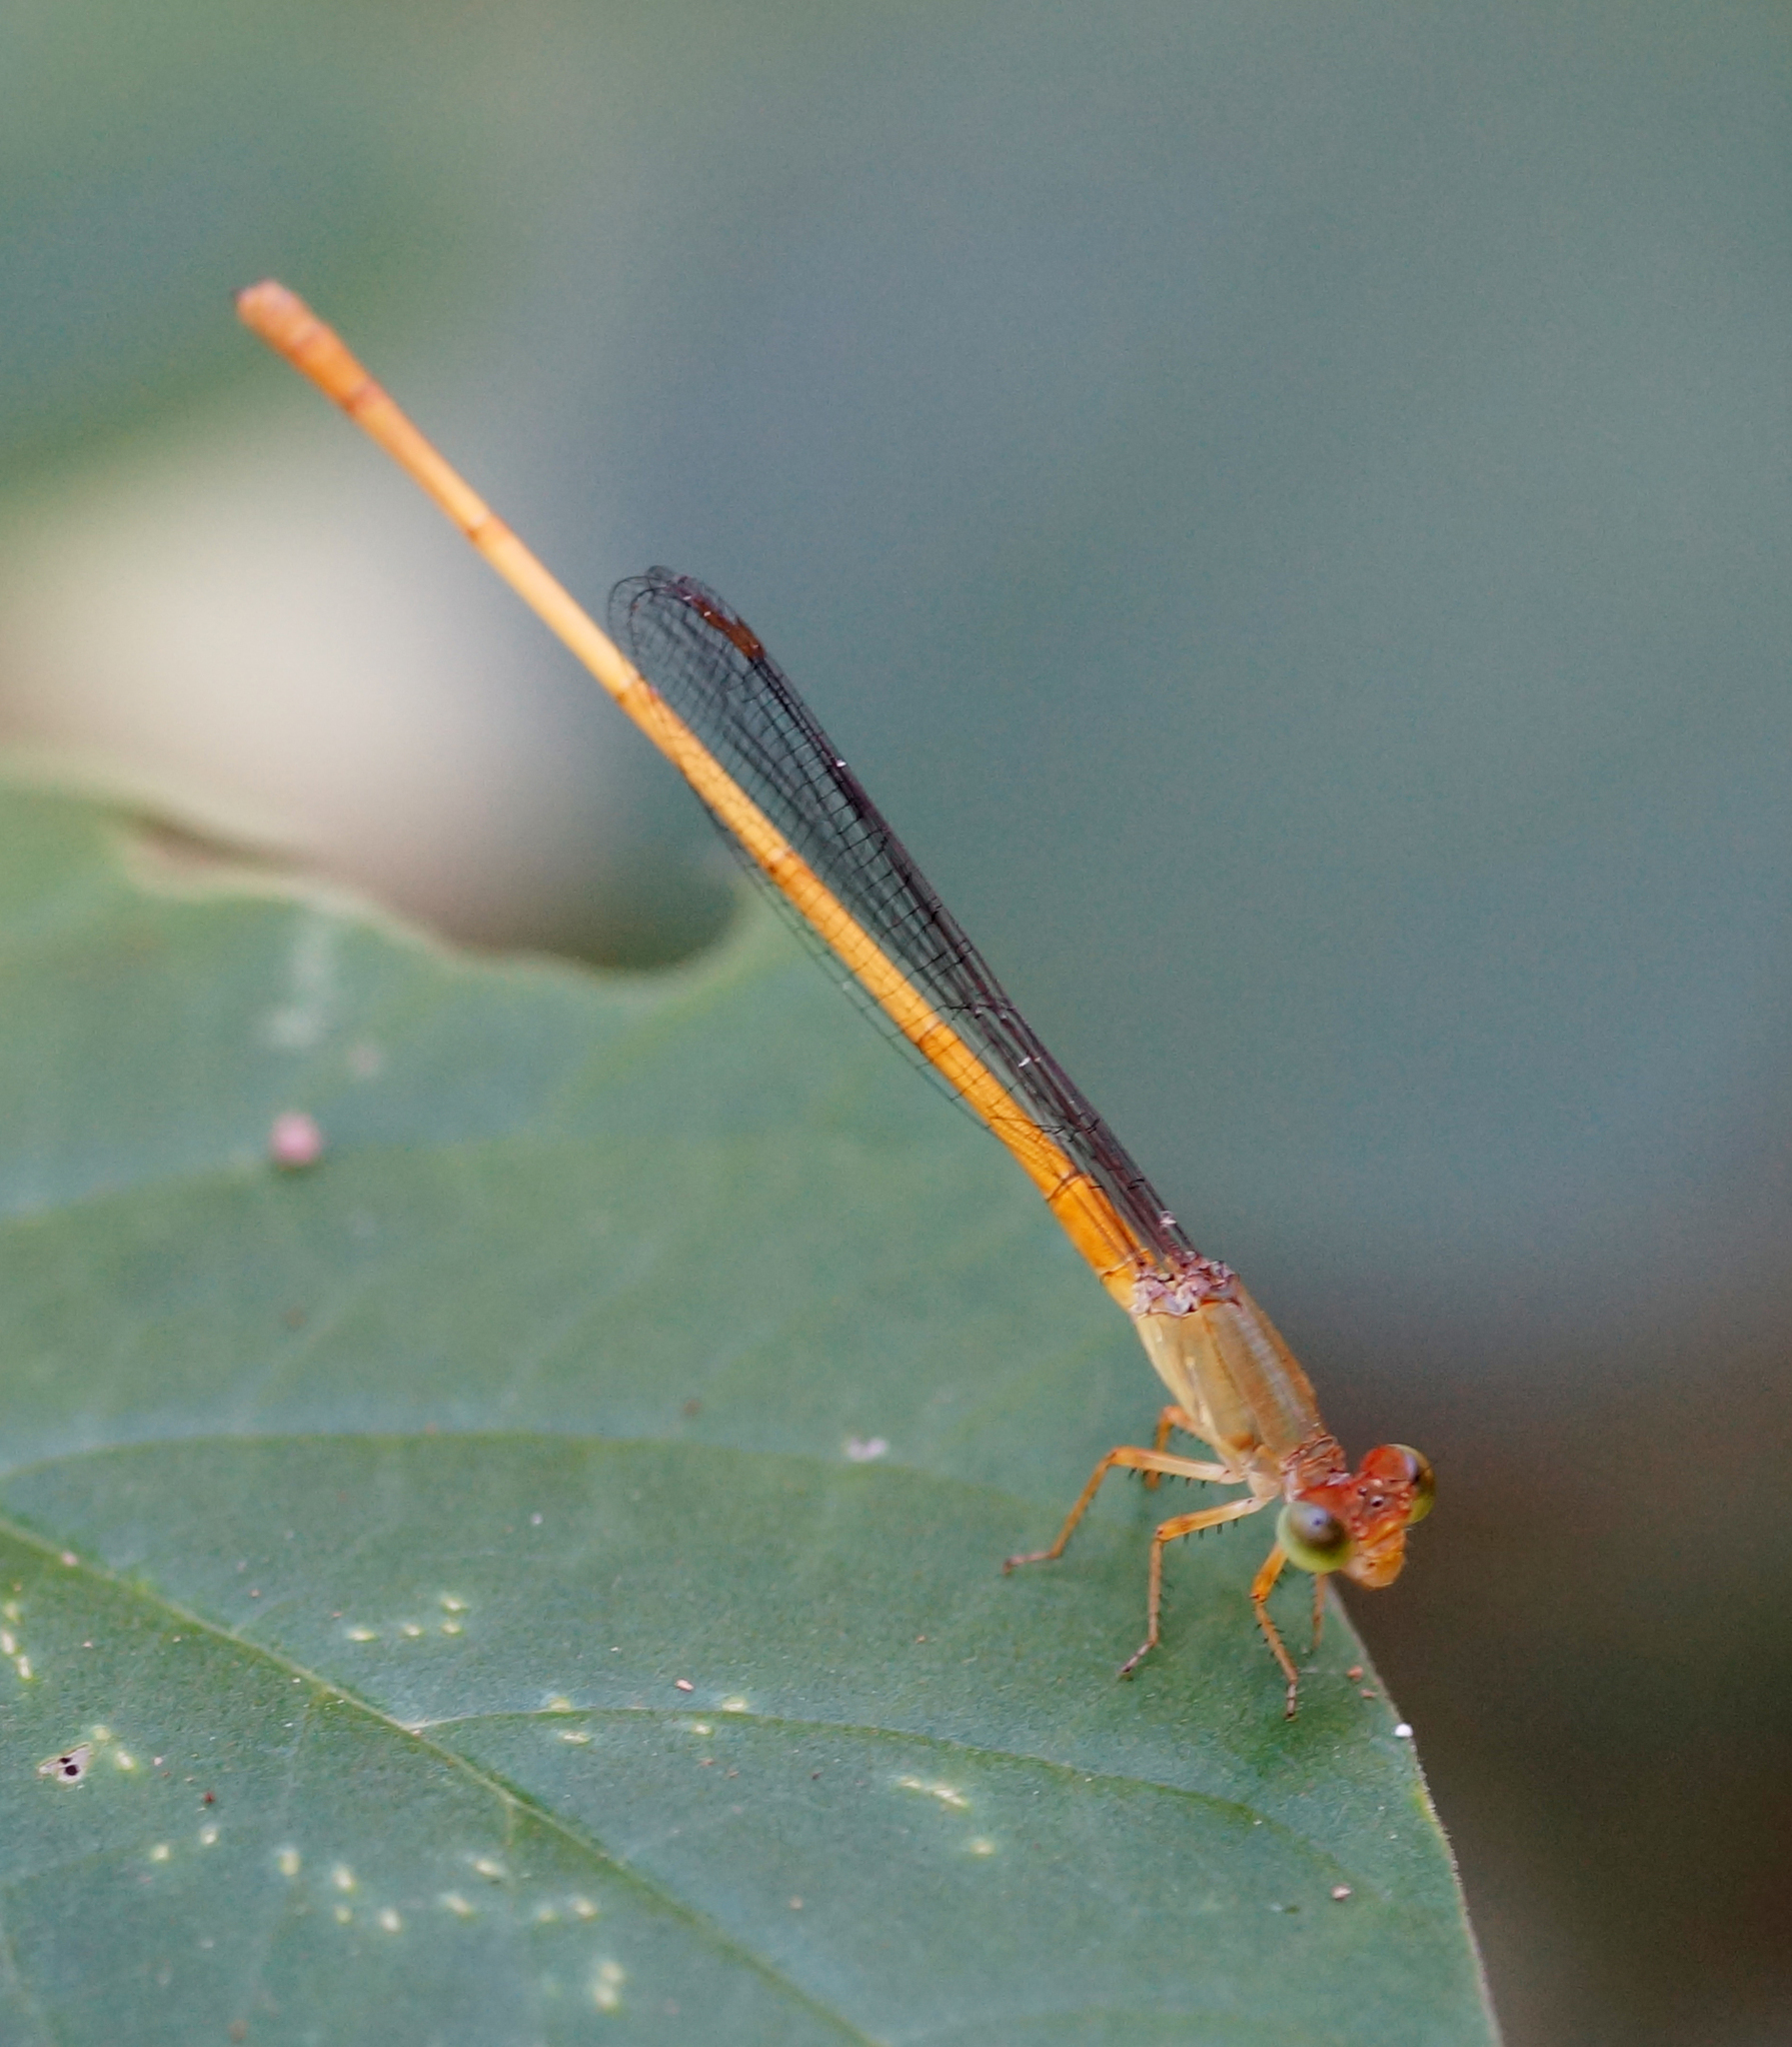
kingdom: Animalia
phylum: Arthropoda
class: Insecta
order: Odonata
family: Coenagrionidae
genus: Ceriagrion
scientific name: Ceriagrion calamineum
